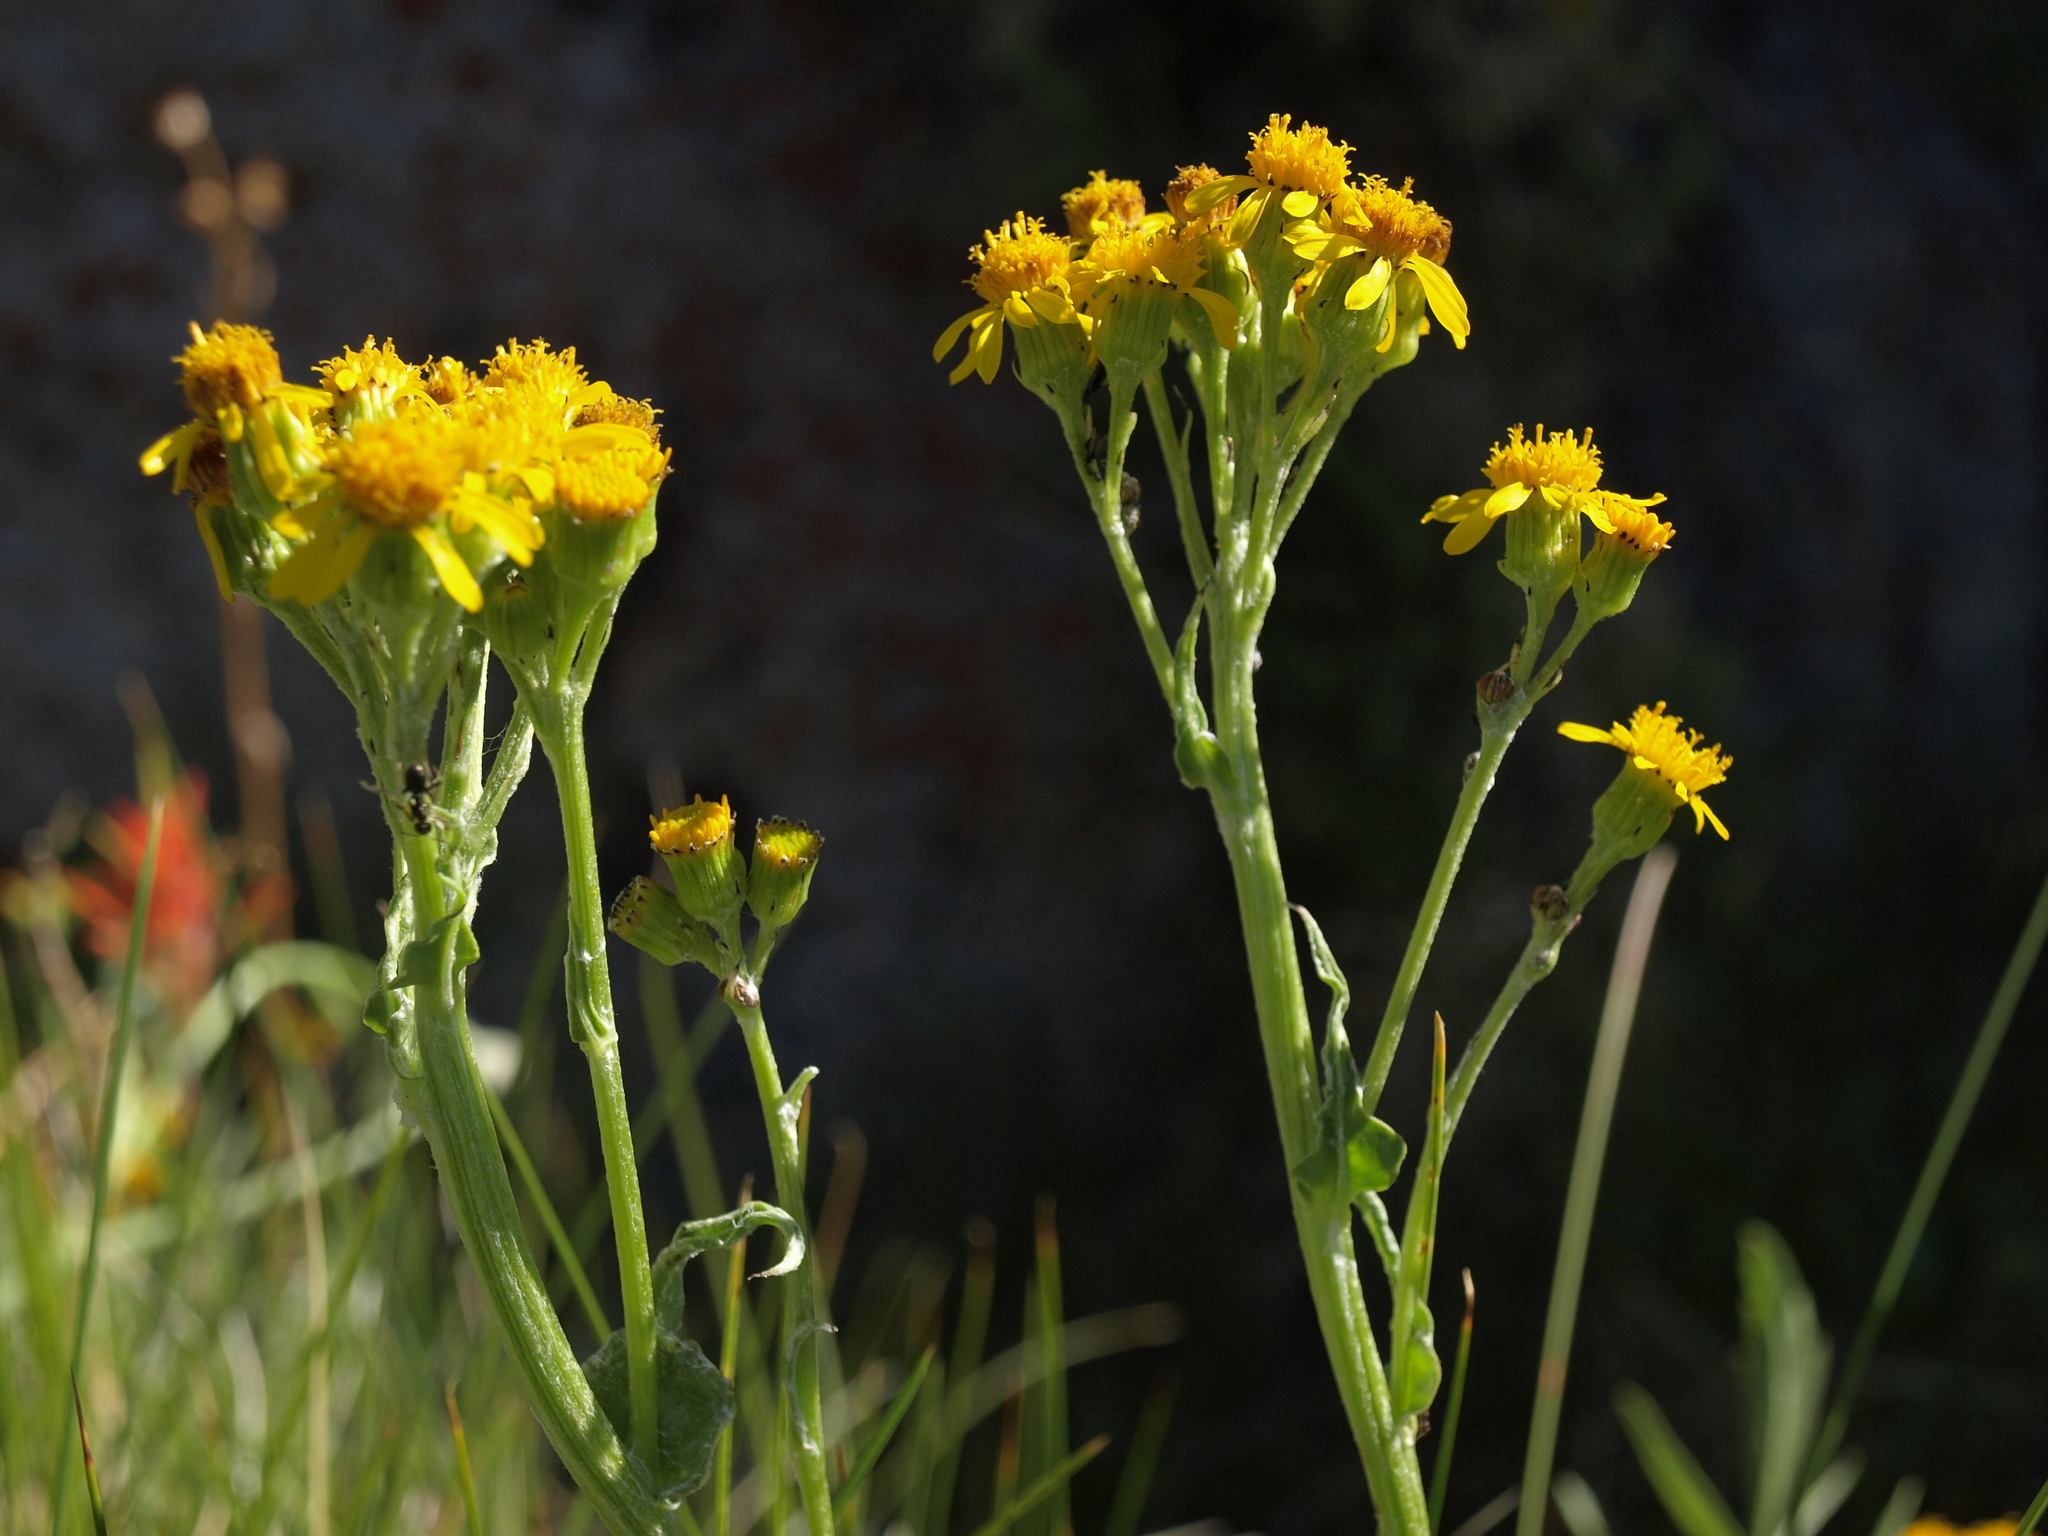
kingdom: Plantae
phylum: Tracheophyta
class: Magnoliopsida
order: Asterales
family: Asteraceae
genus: Senecio
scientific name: Senecio integerrimus
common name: Gaugeplant
